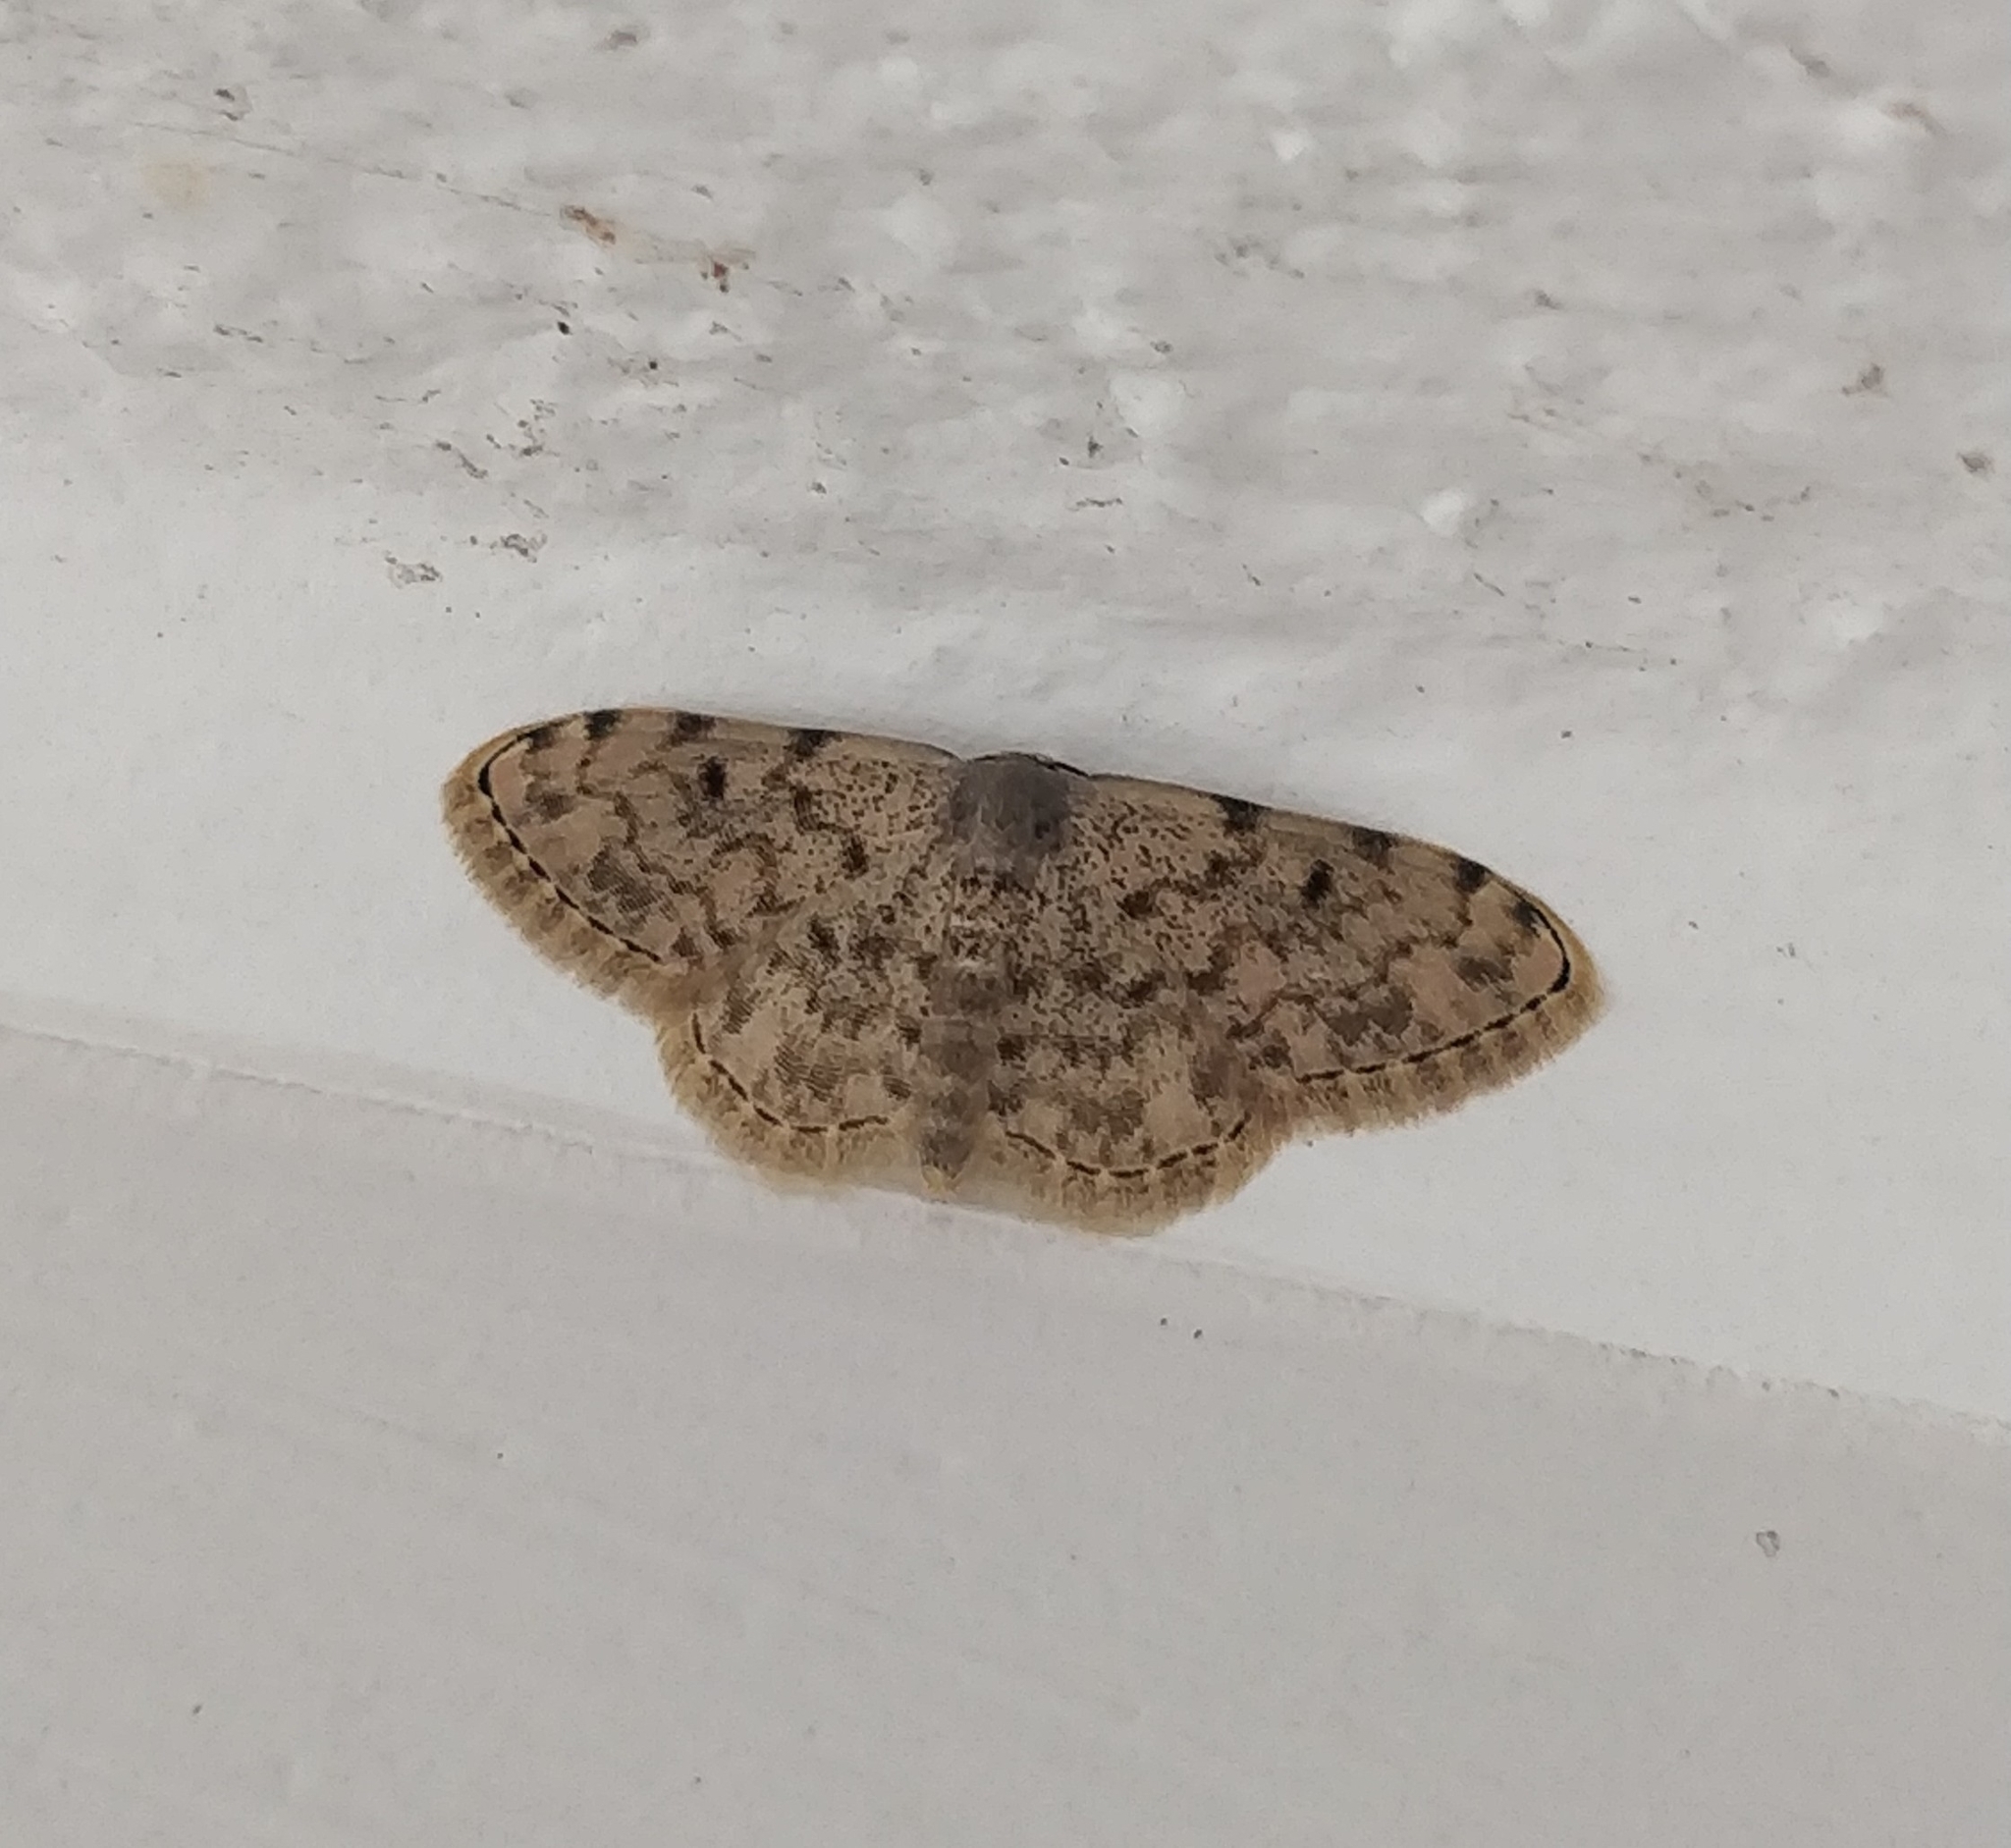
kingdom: Animalia
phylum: Arthropoda
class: Insecta
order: Lepidoptera
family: Geometridae
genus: Glossotrophia
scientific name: Glossotrophia asellaria
